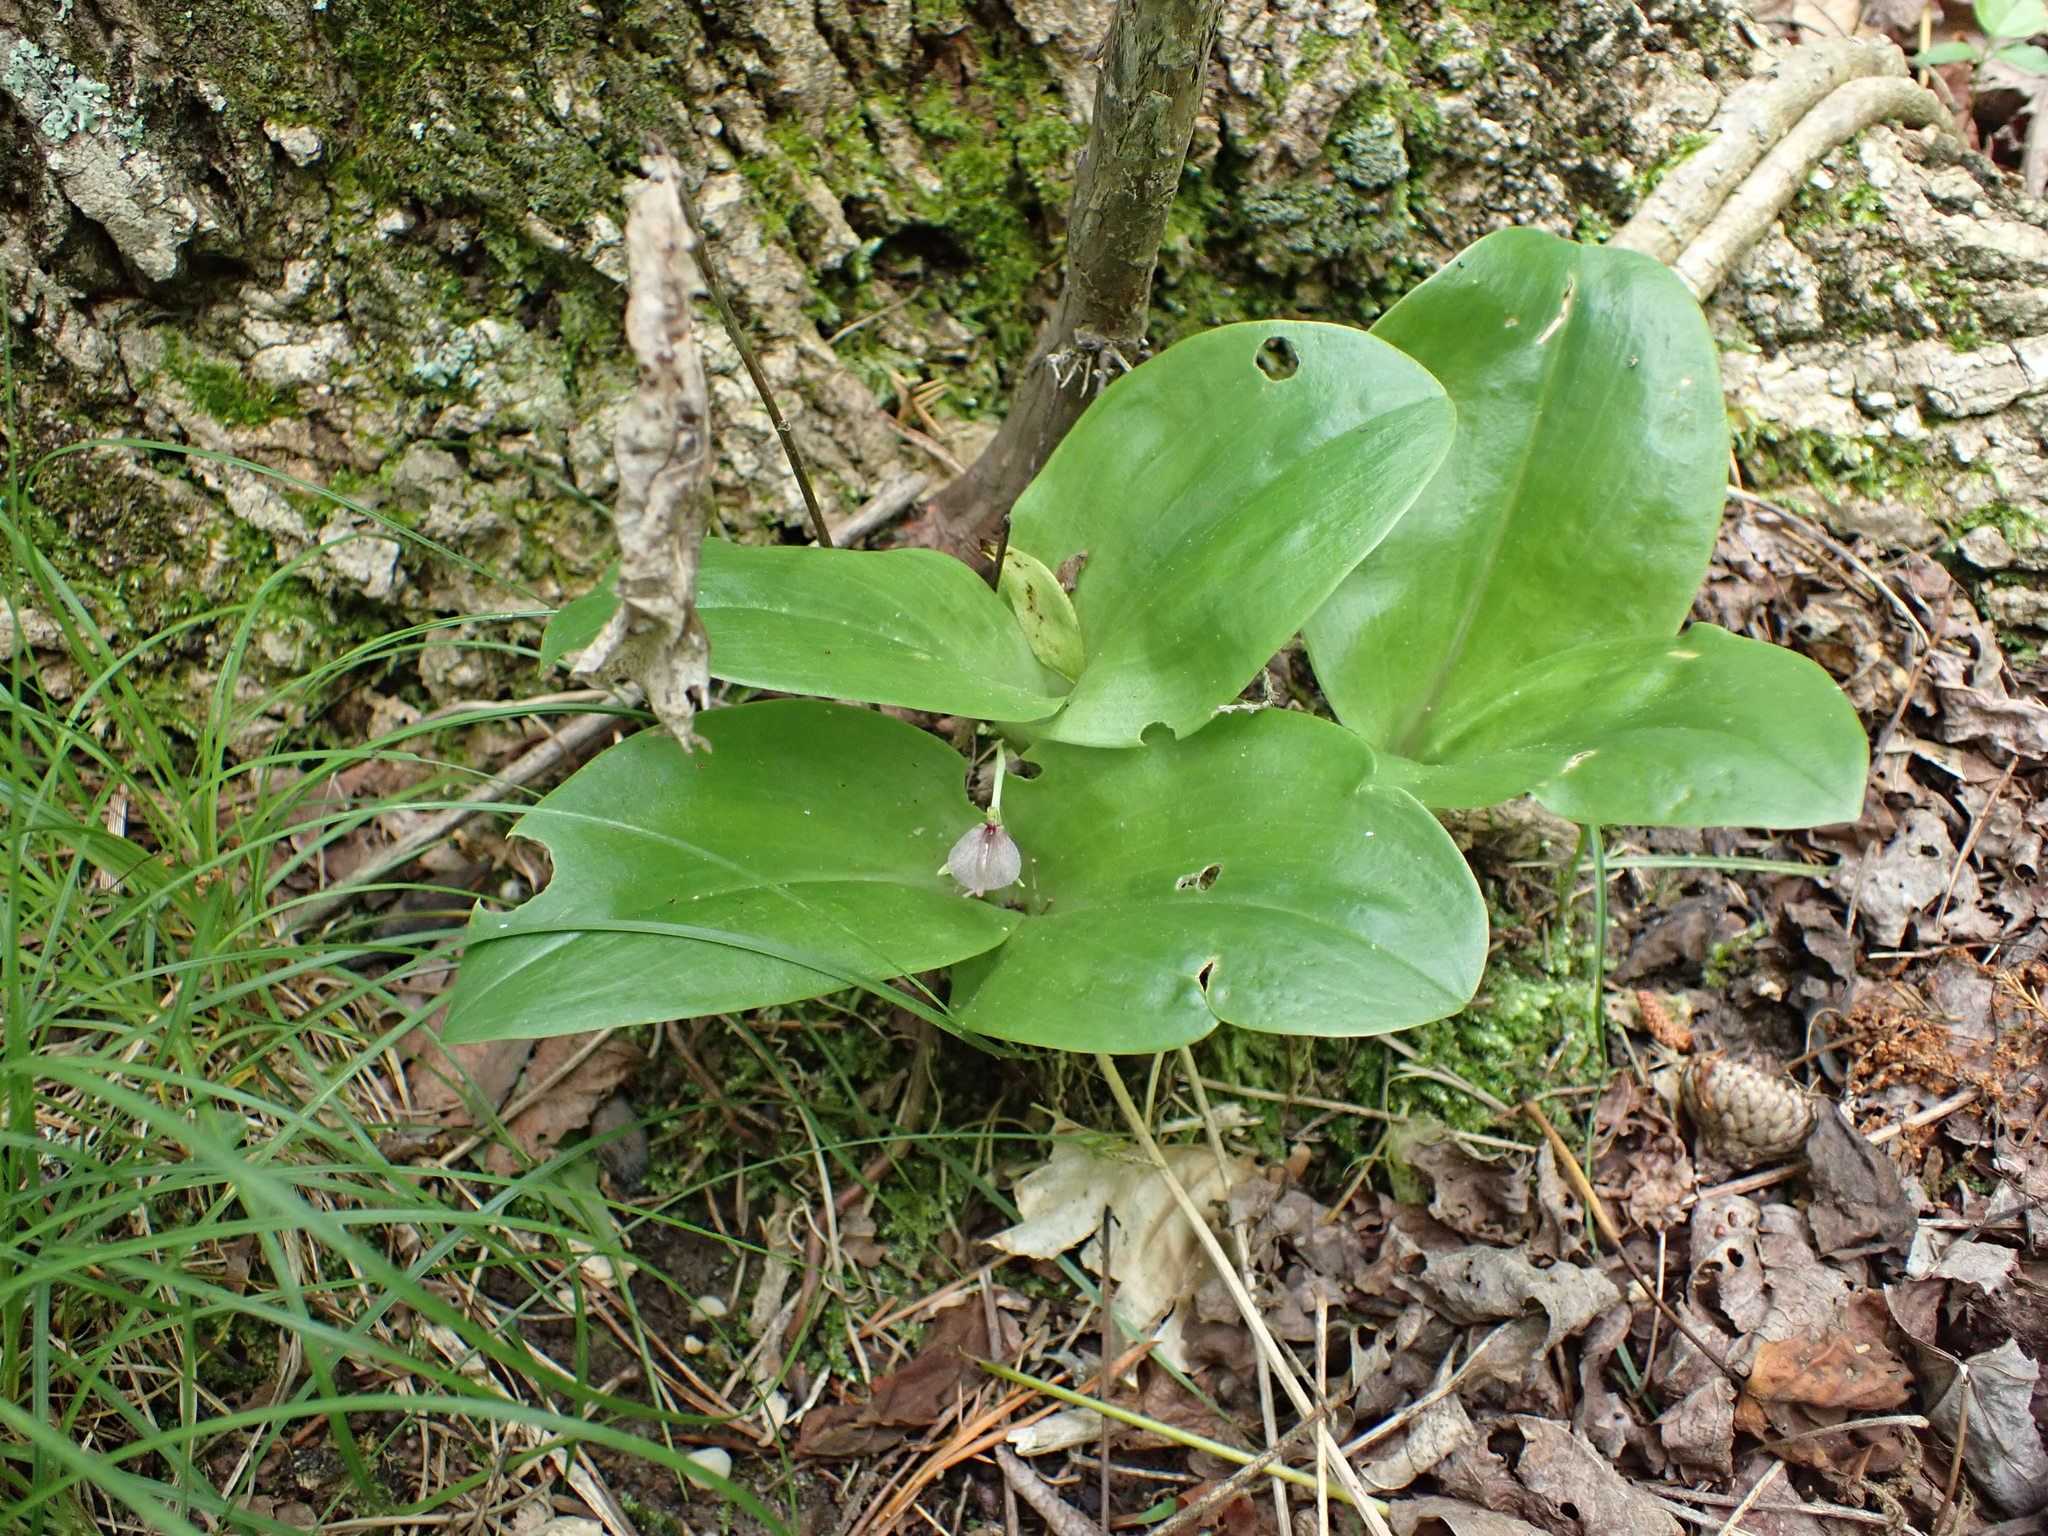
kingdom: Plantae
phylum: Tracheophyta
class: Liliopsida
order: Asparagales
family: Orchidaceae
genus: Liparis
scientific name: Liparis liliifolia
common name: Brown wide-lip orchid
